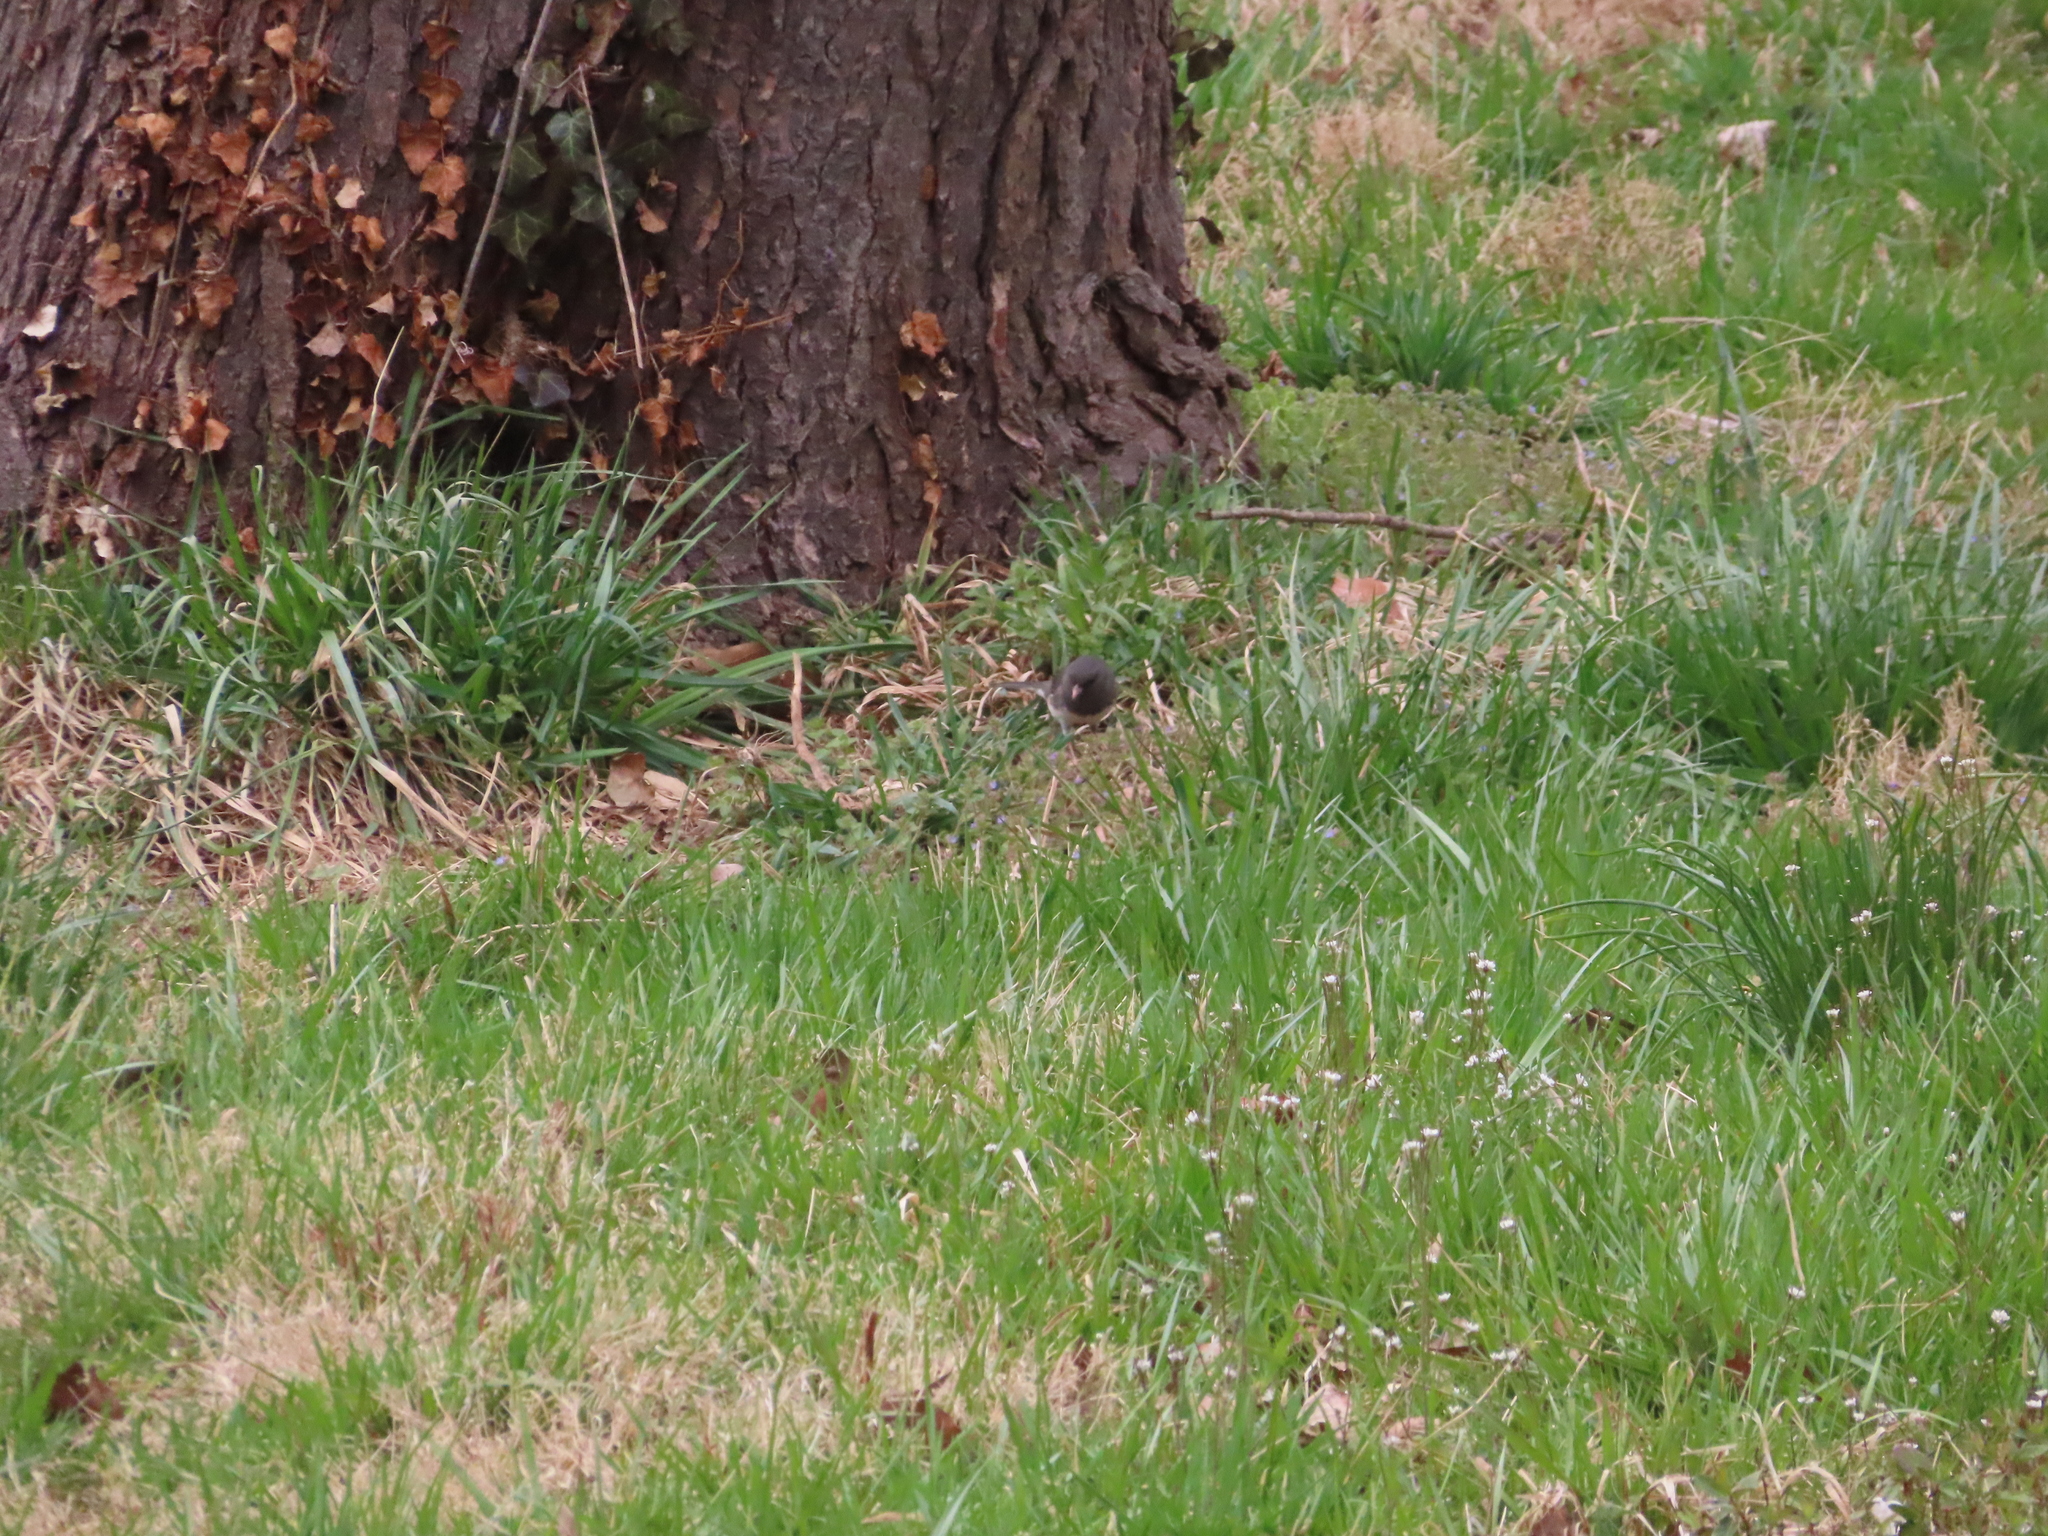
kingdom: Animalia
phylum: Chordata
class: Aves
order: Passeriformes
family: Passerellidae
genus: Junco
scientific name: Junco hyemalis
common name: Dark-eyed junco
